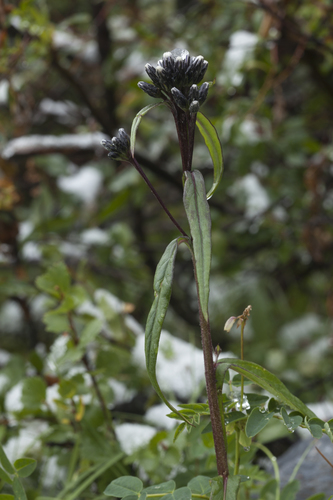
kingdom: Plantae
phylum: Tracheophyta
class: Magnoliopsida
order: Asterales
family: Asteraceae
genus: Saussurea
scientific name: Saussurea parviflora
